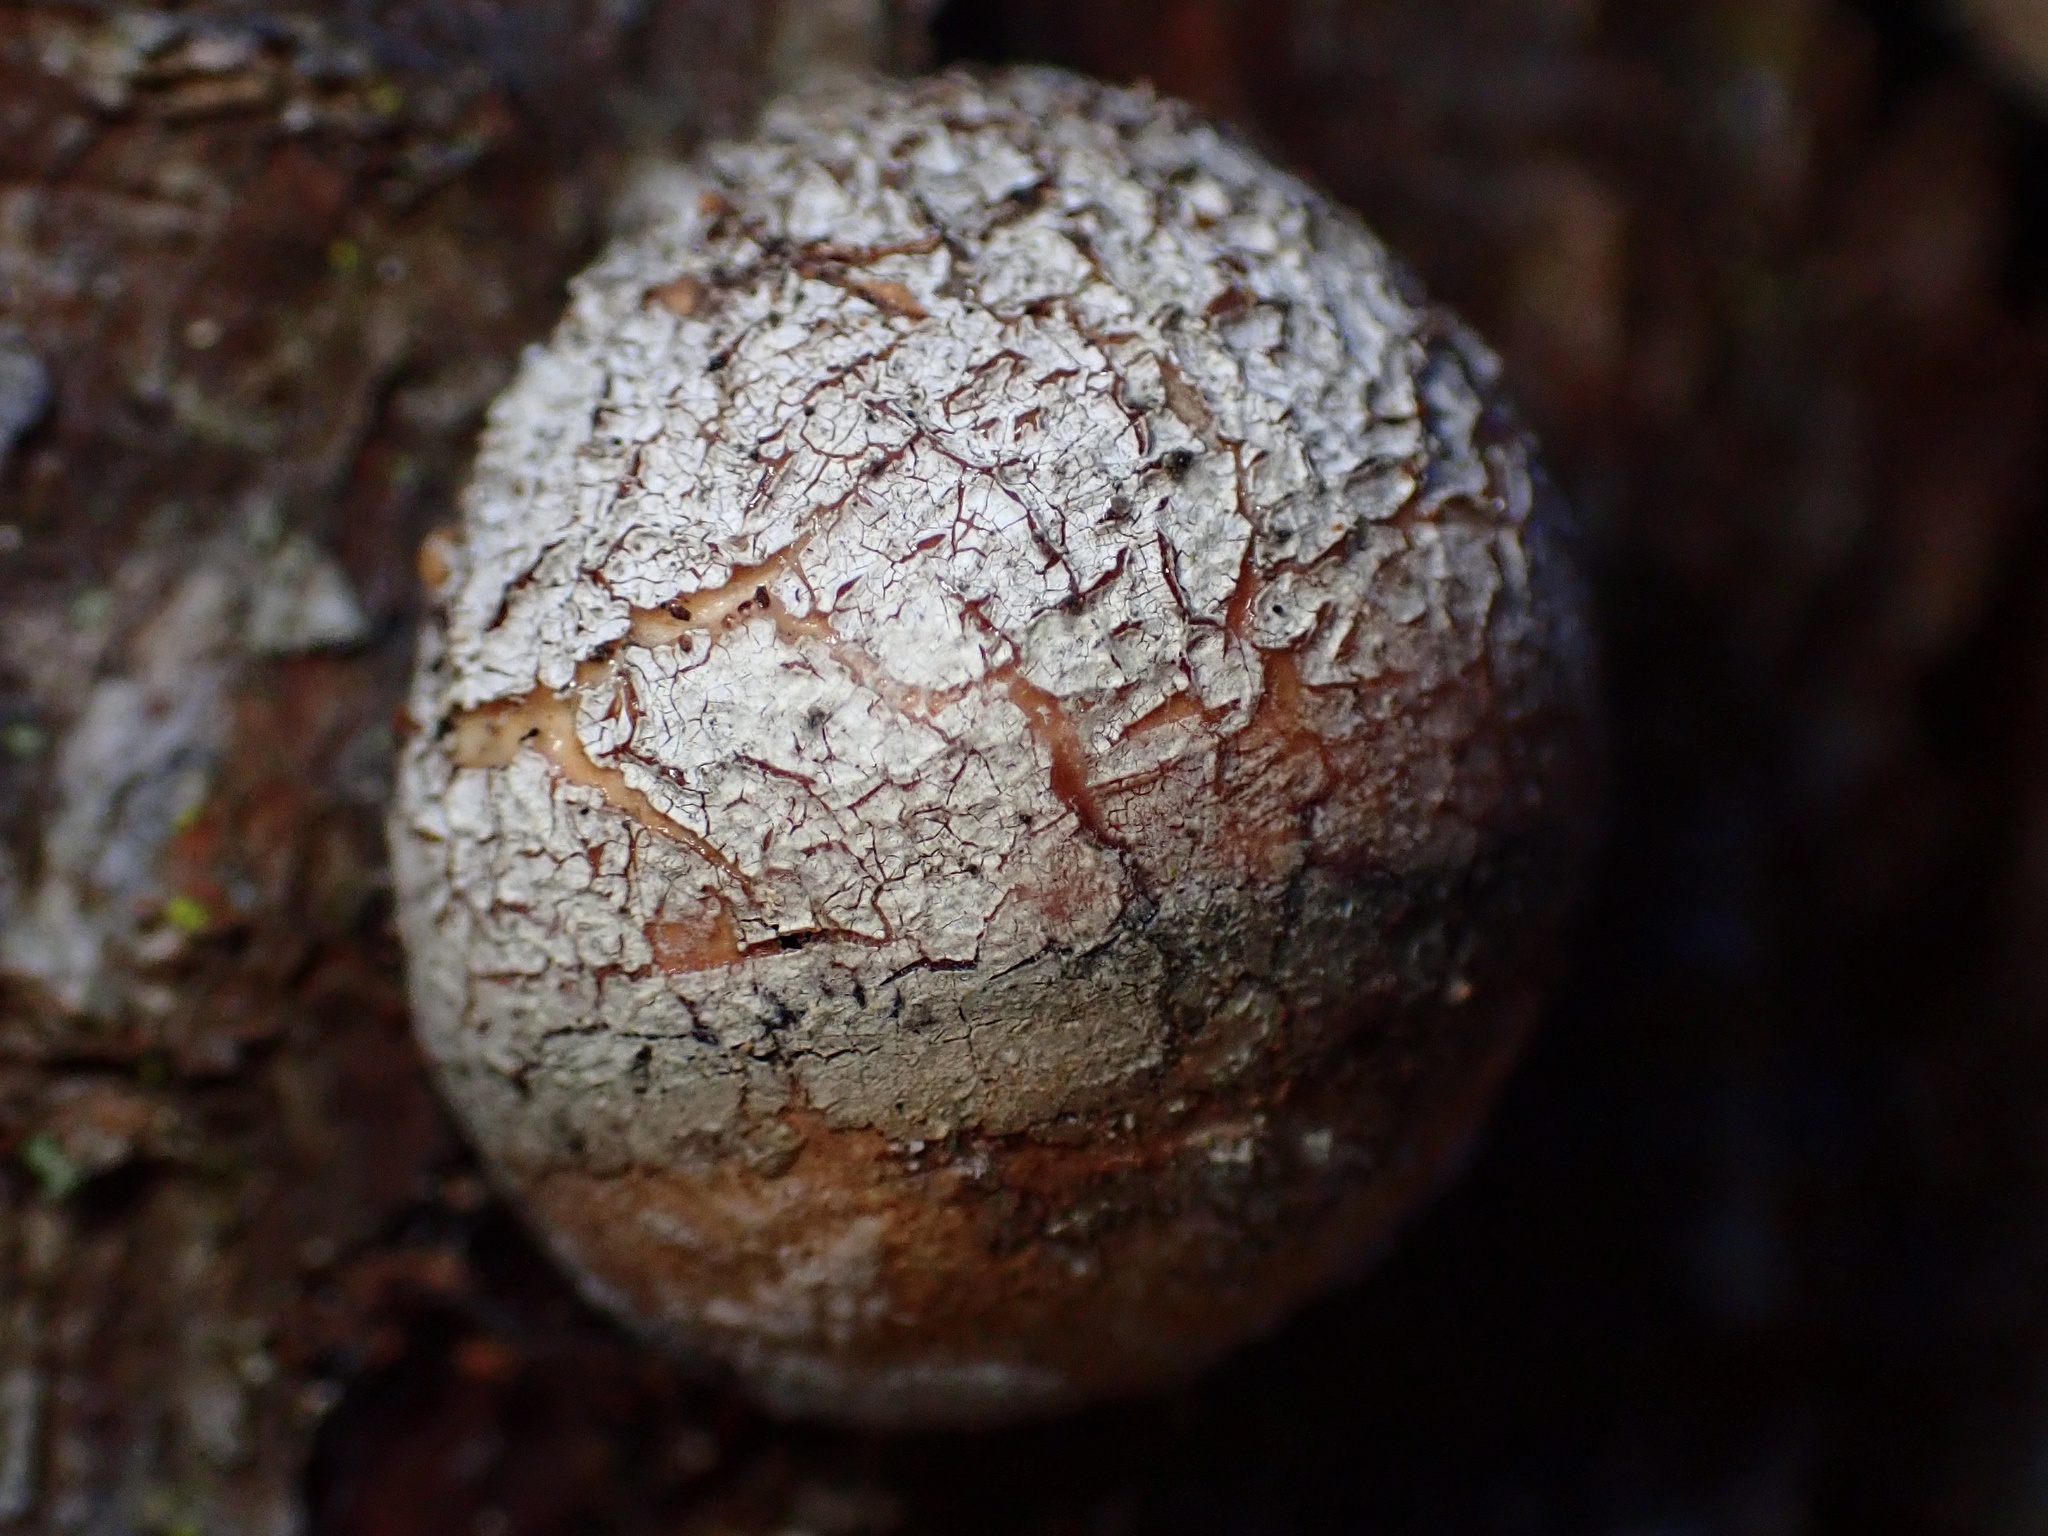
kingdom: Fungi
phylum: Basidiomycota
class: Agaricomycetes
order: Polyporales
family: Polyporaceae
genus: Cryptoporus
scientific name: Cryptoporus volvatus
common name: Veiled polypore
